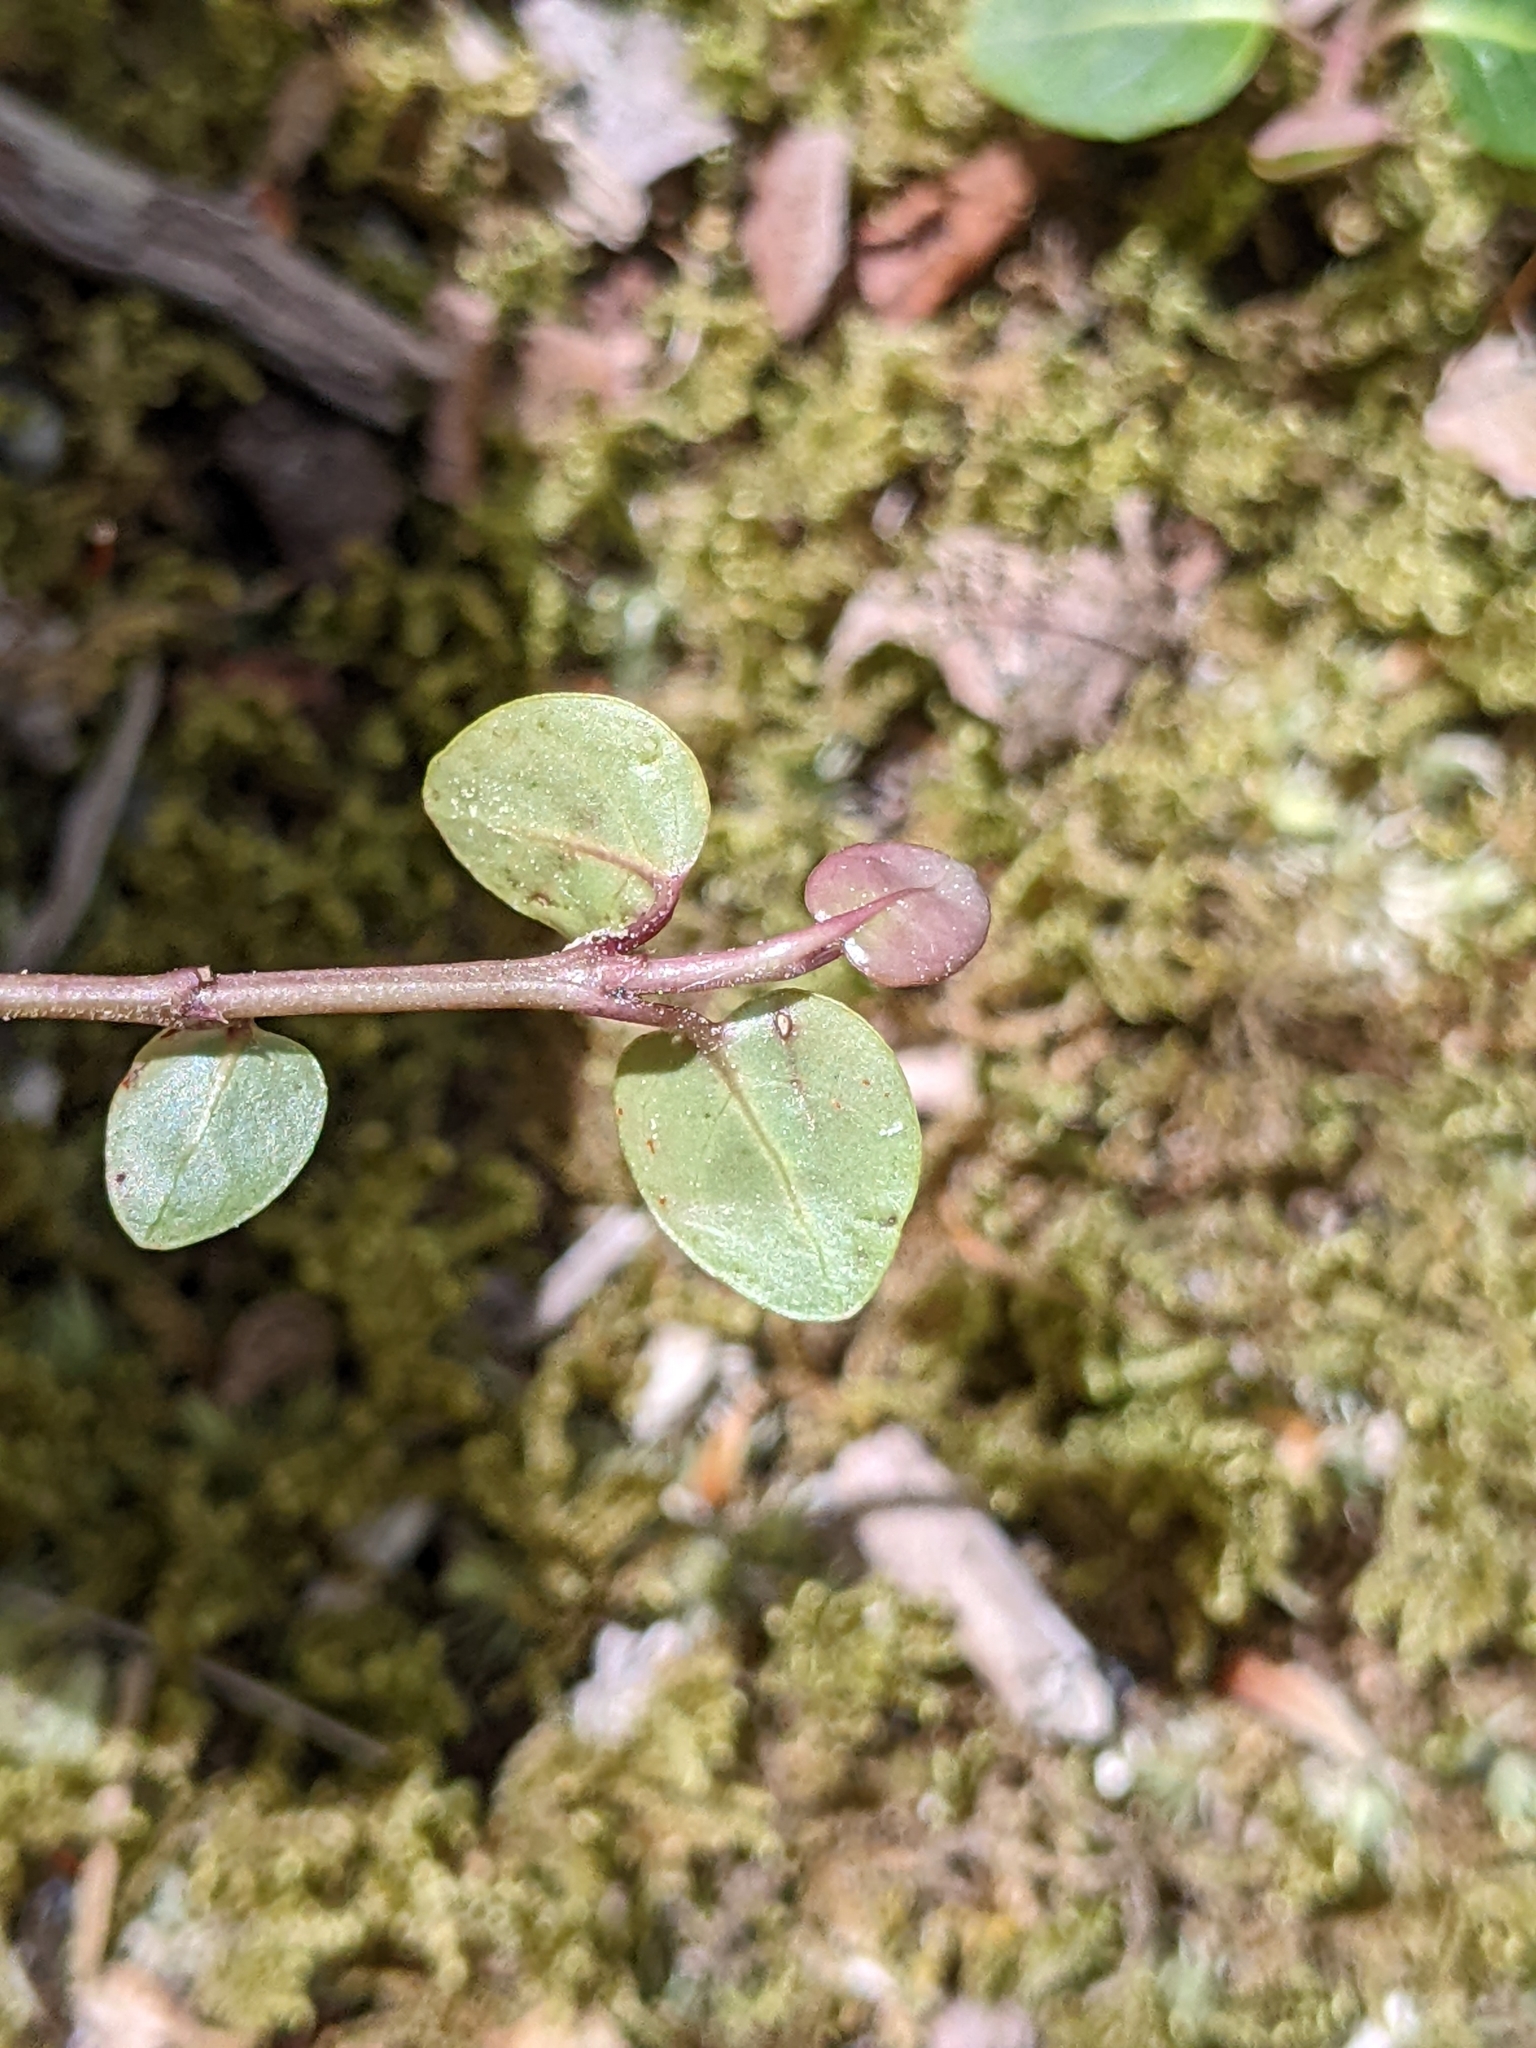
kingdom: Plantae
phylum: Tracheophyta
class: Magnoliopsida
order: Gentianales
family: Rubiaceae
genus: Mitchella
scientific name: Mitchella repens
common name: Partridge-berry
